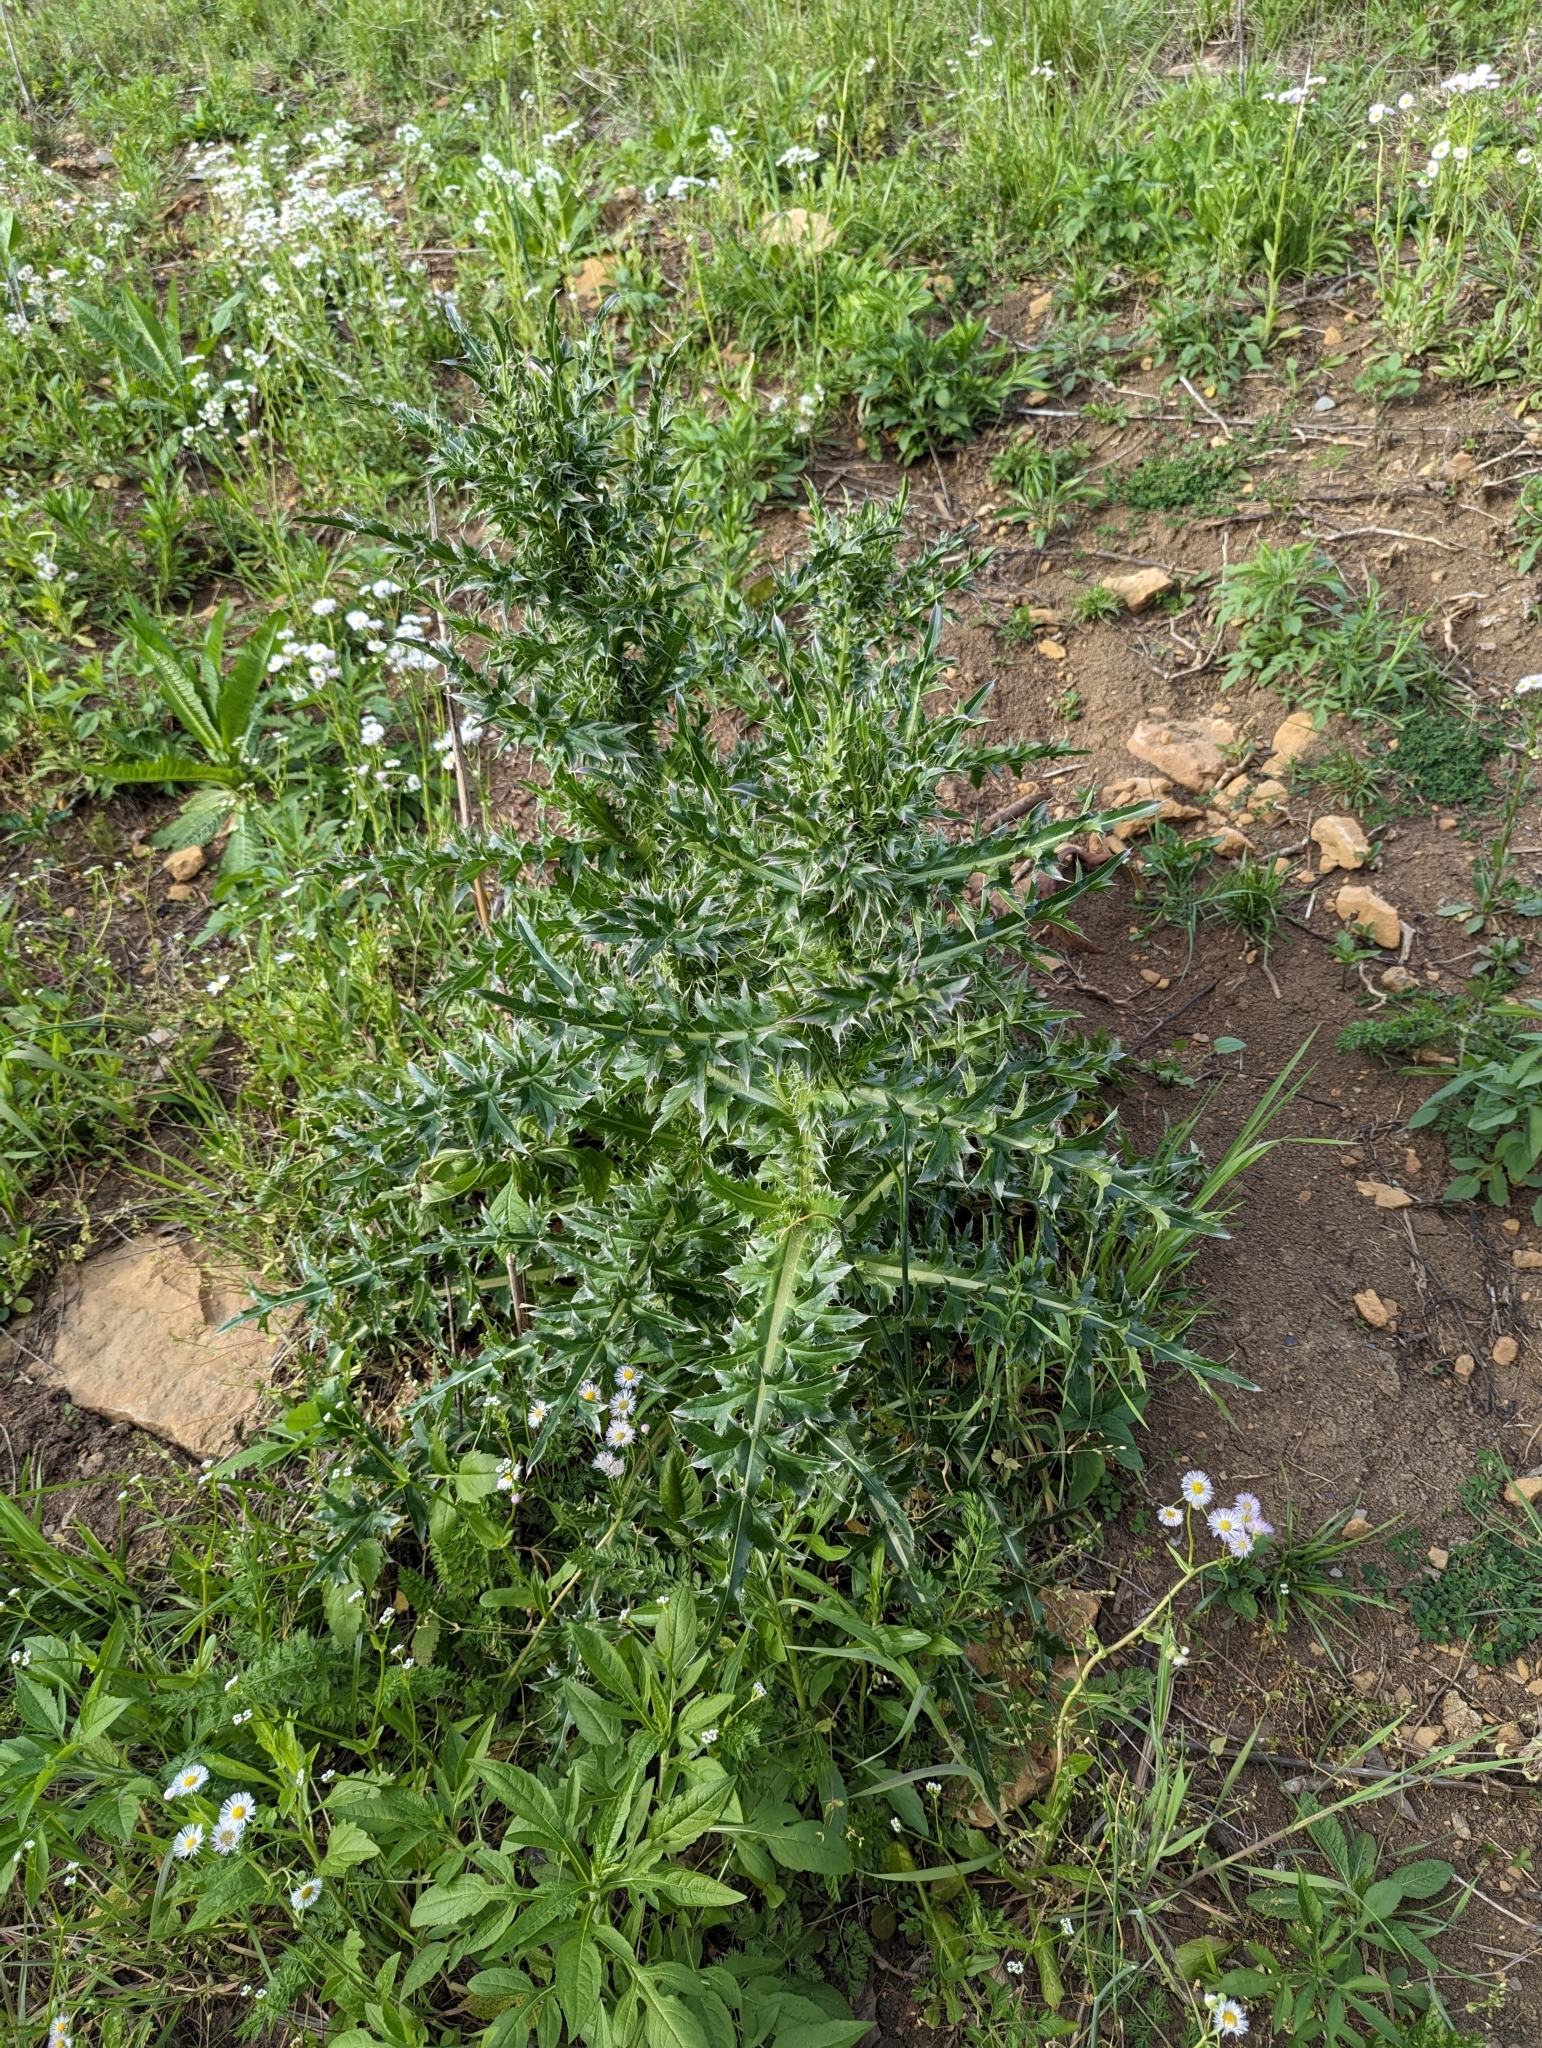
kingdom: Plantae
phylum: Tracheophyta
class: Magnoliopsida
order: Asterales
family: Asteraceae
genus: Carduus
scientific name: Carduus nutans
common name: Musk thistle
